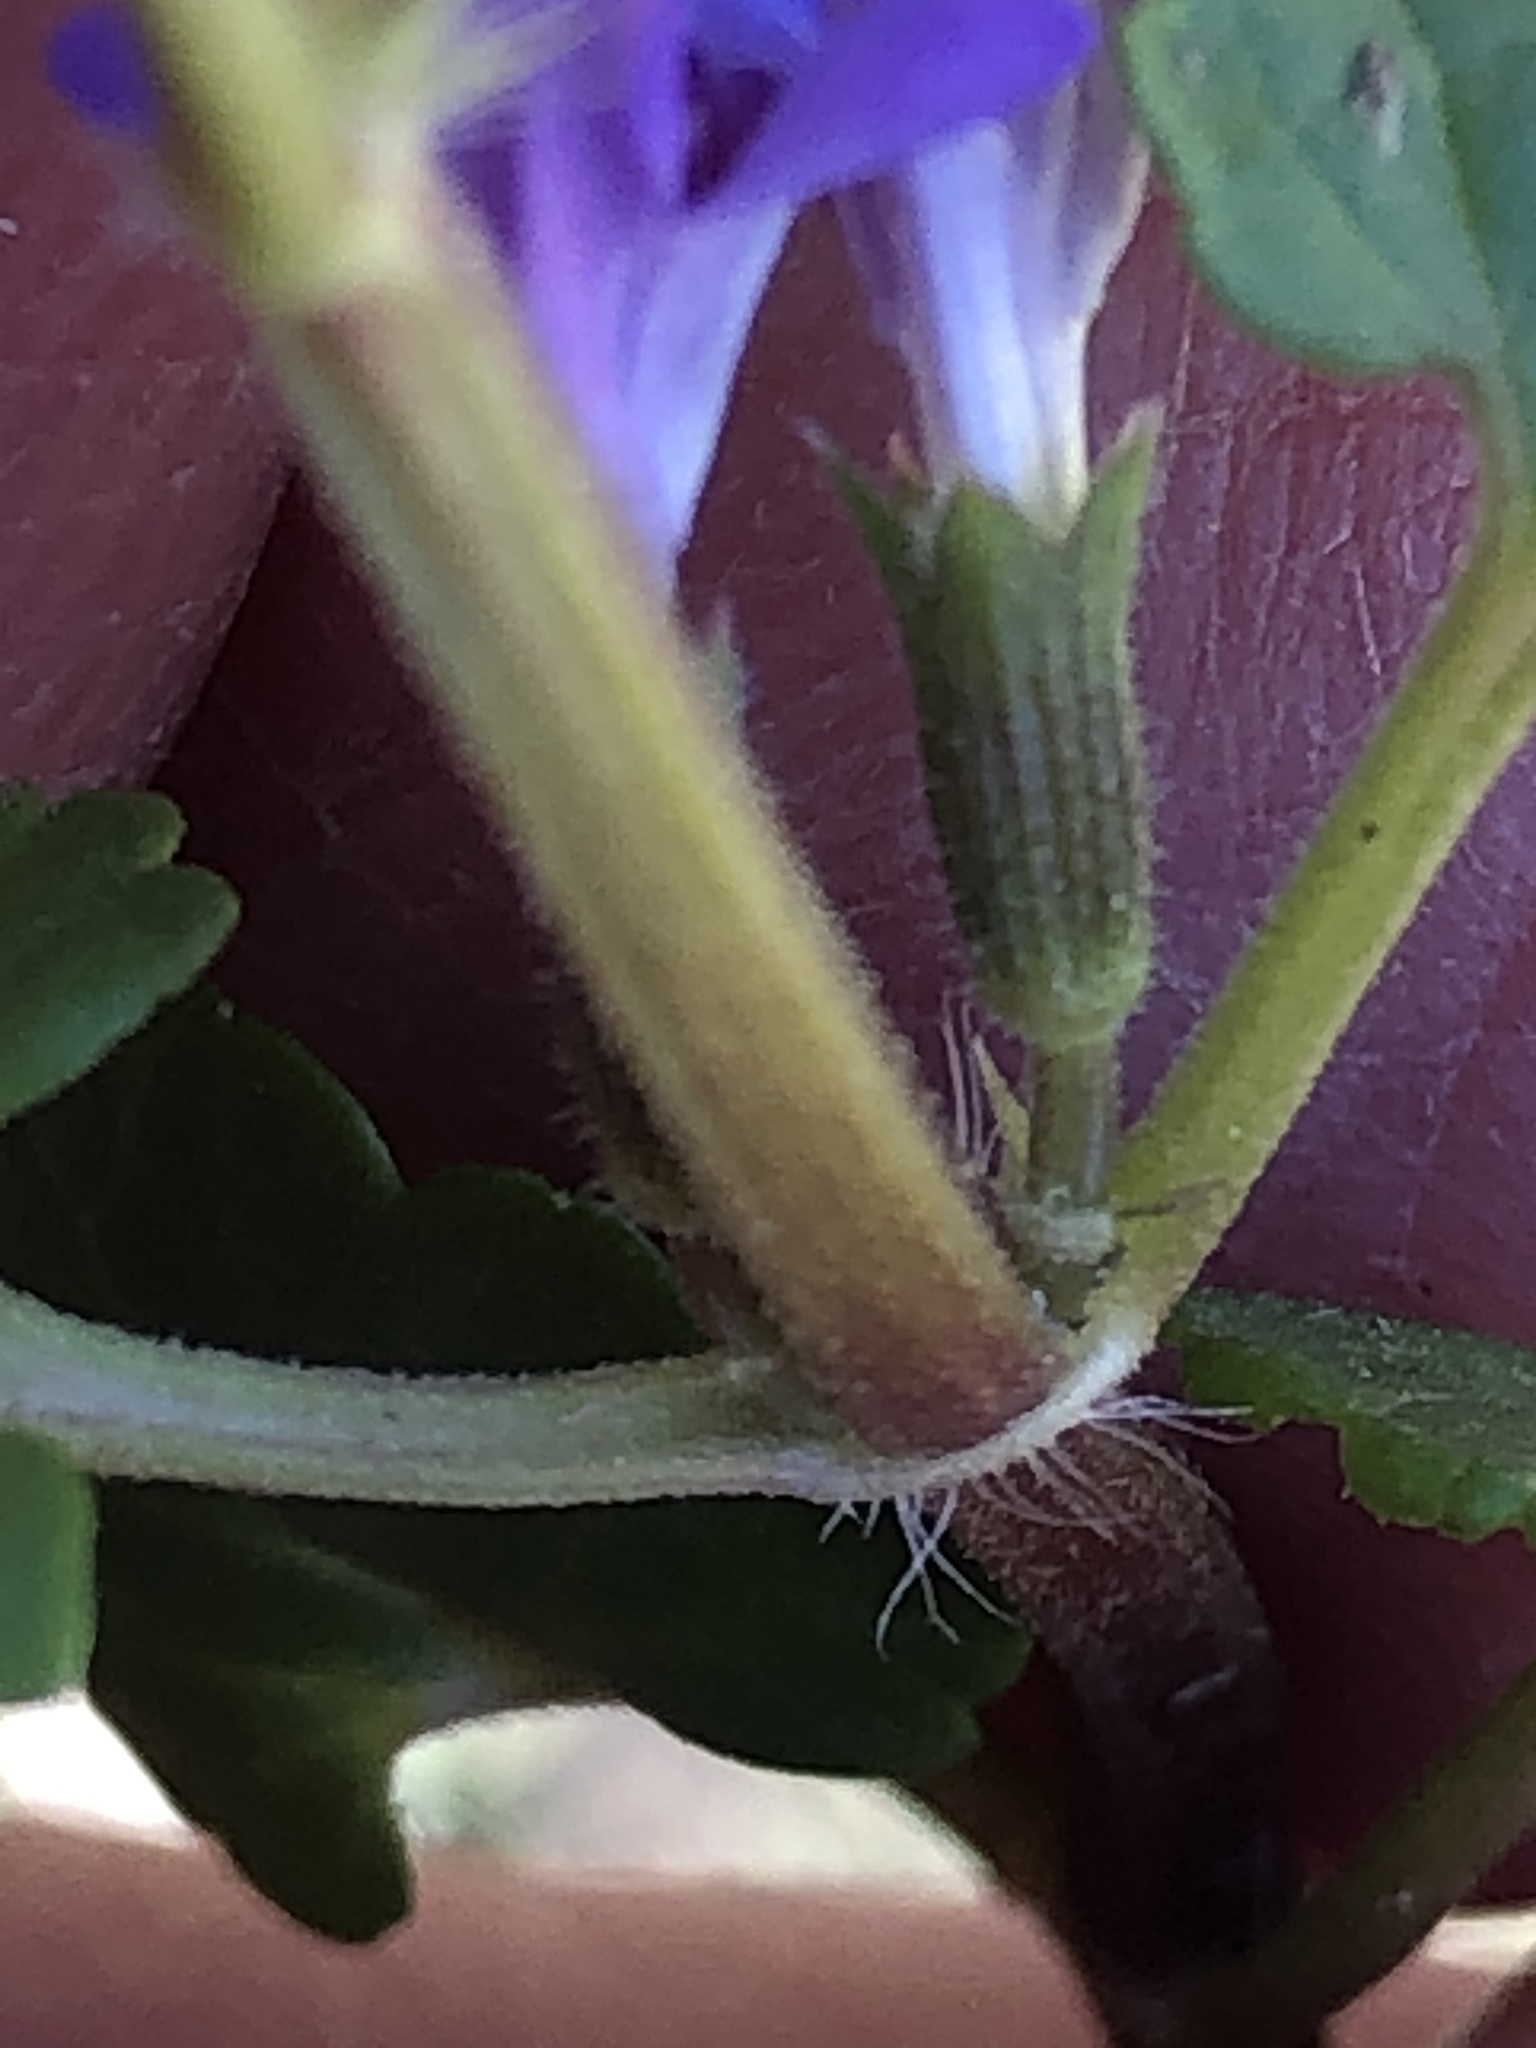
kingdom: Plantae
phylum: Tracheophyta
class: Magnoliopsida
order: Lamiales
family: Lamiaceae
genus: Glechoma
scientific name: Glechoma hederacea
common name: Ground ivy
